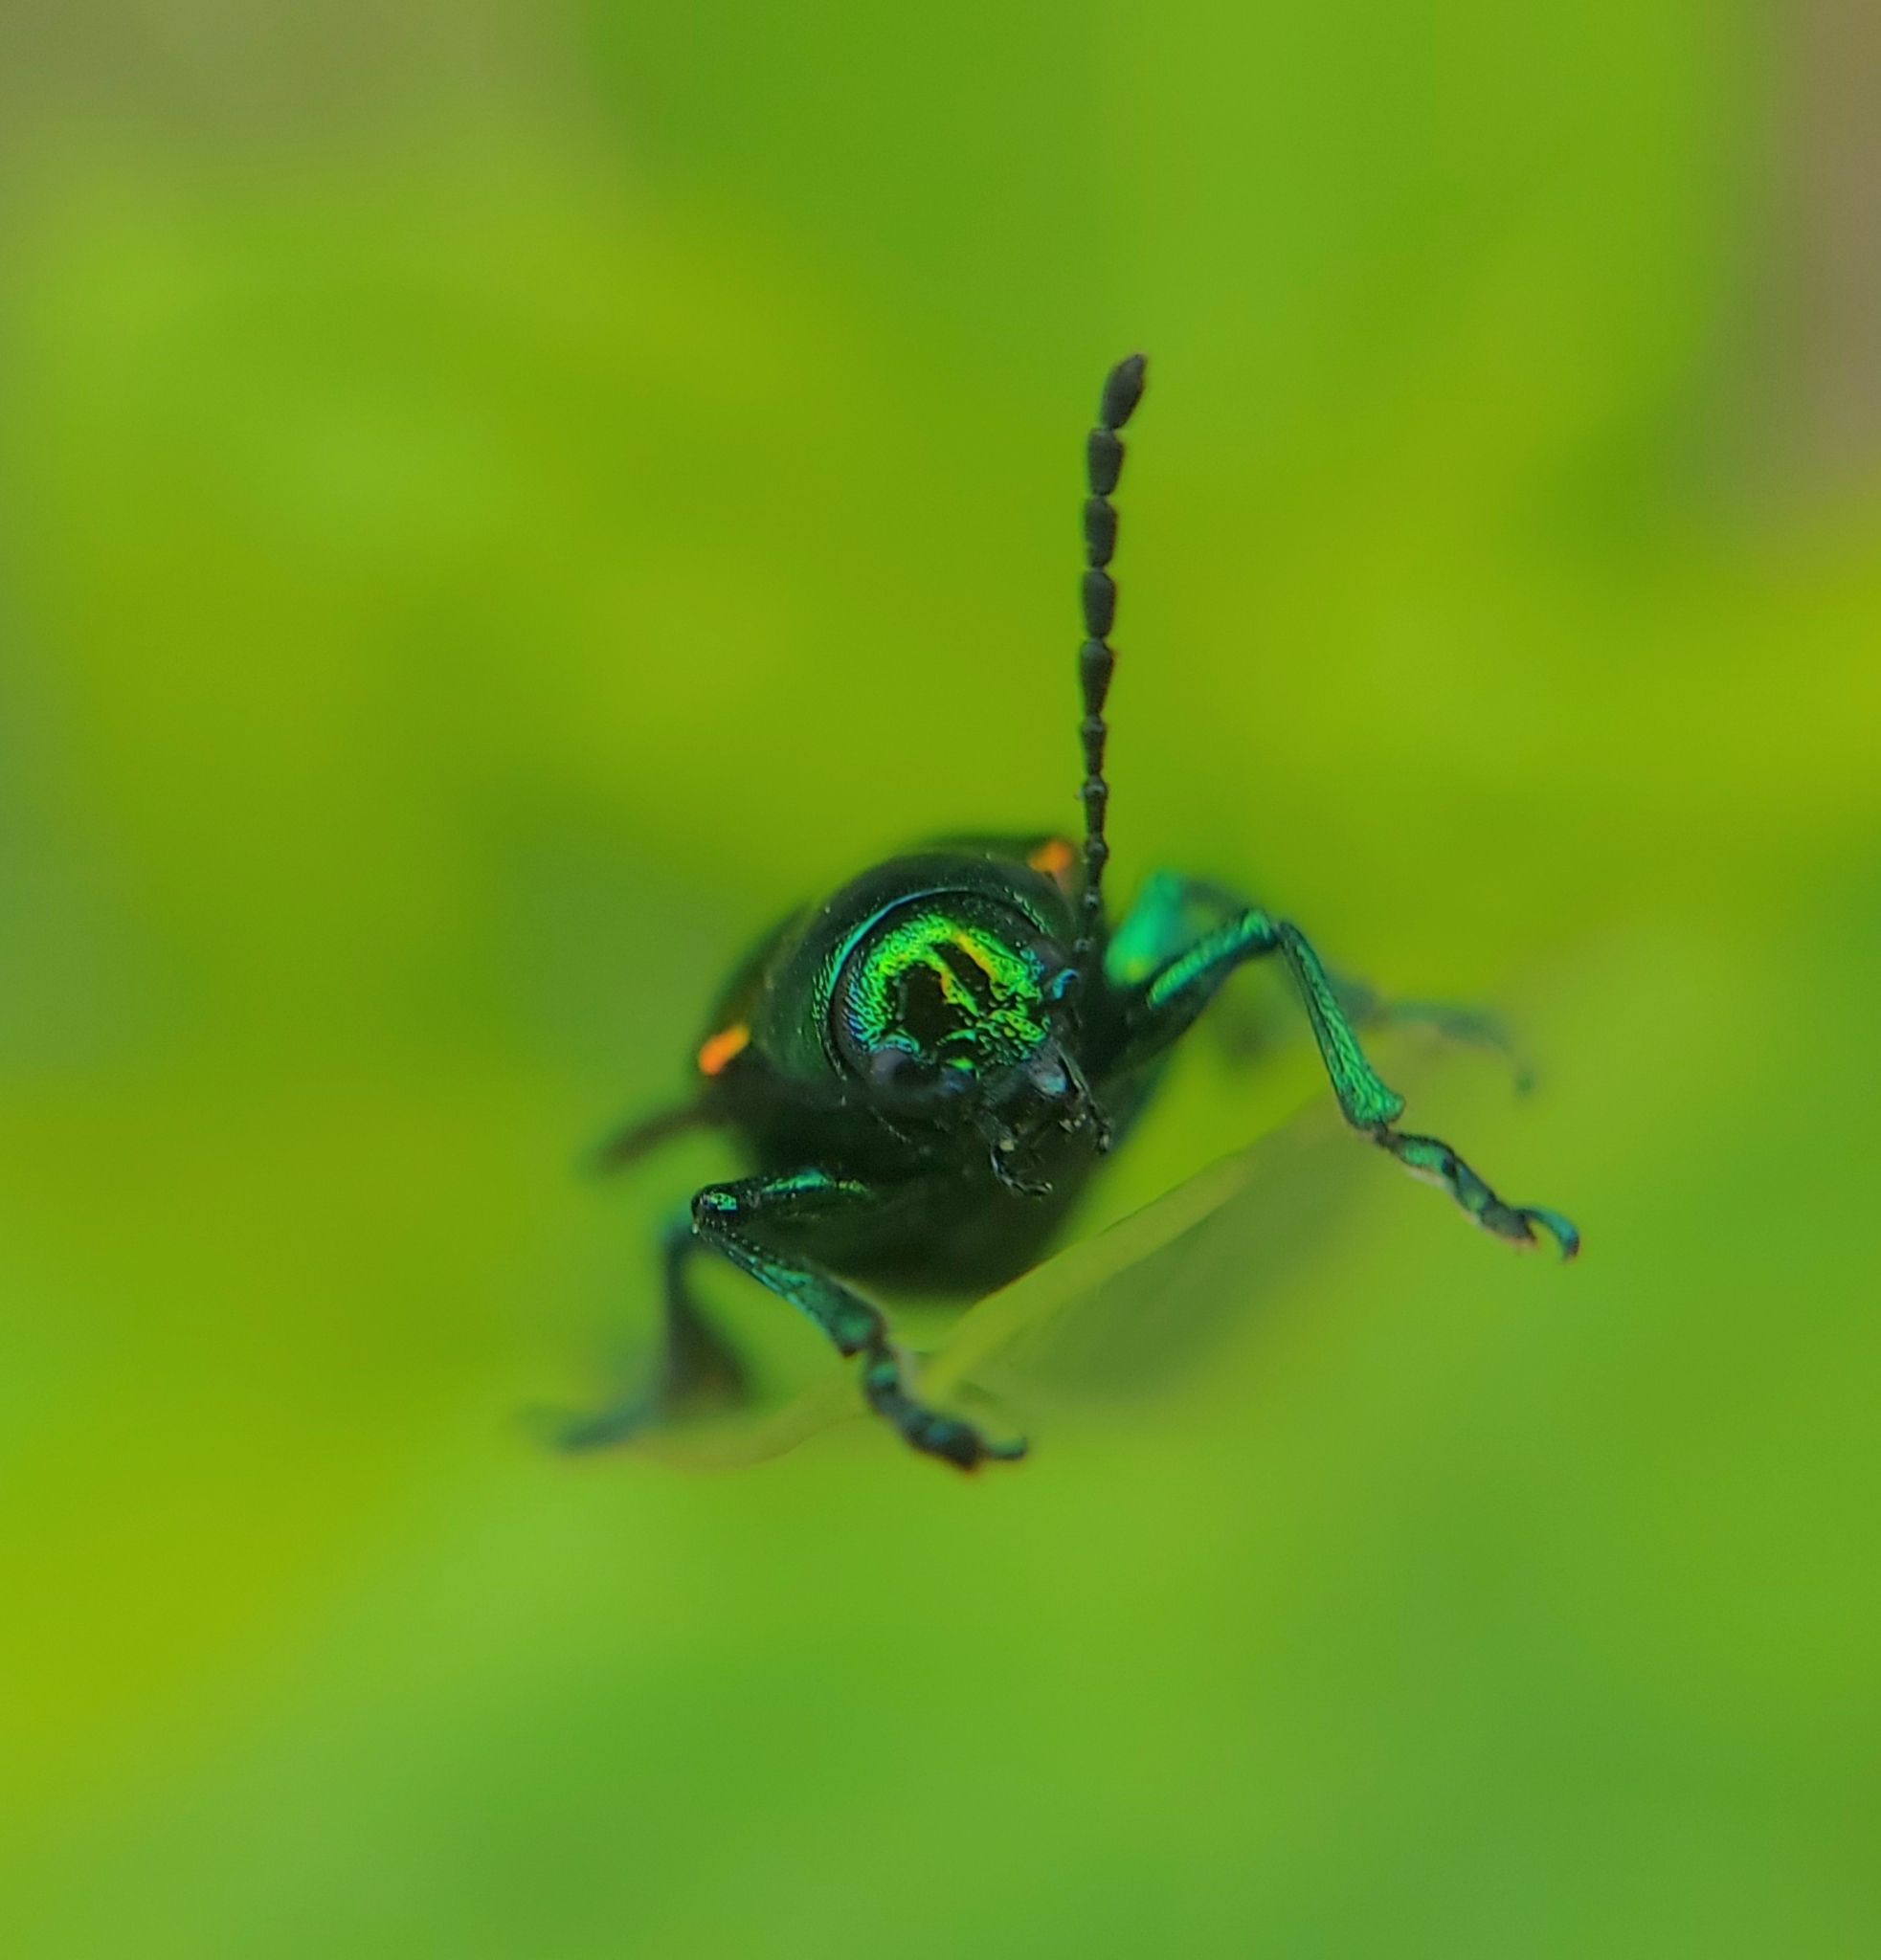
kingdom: Animalia
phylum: Arthropoda
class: Insecta
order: Coleoptera
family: Chrysomelidae
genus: Chrysochus
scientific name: Chrysochus auratus
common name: Dogbane leaf beetle
